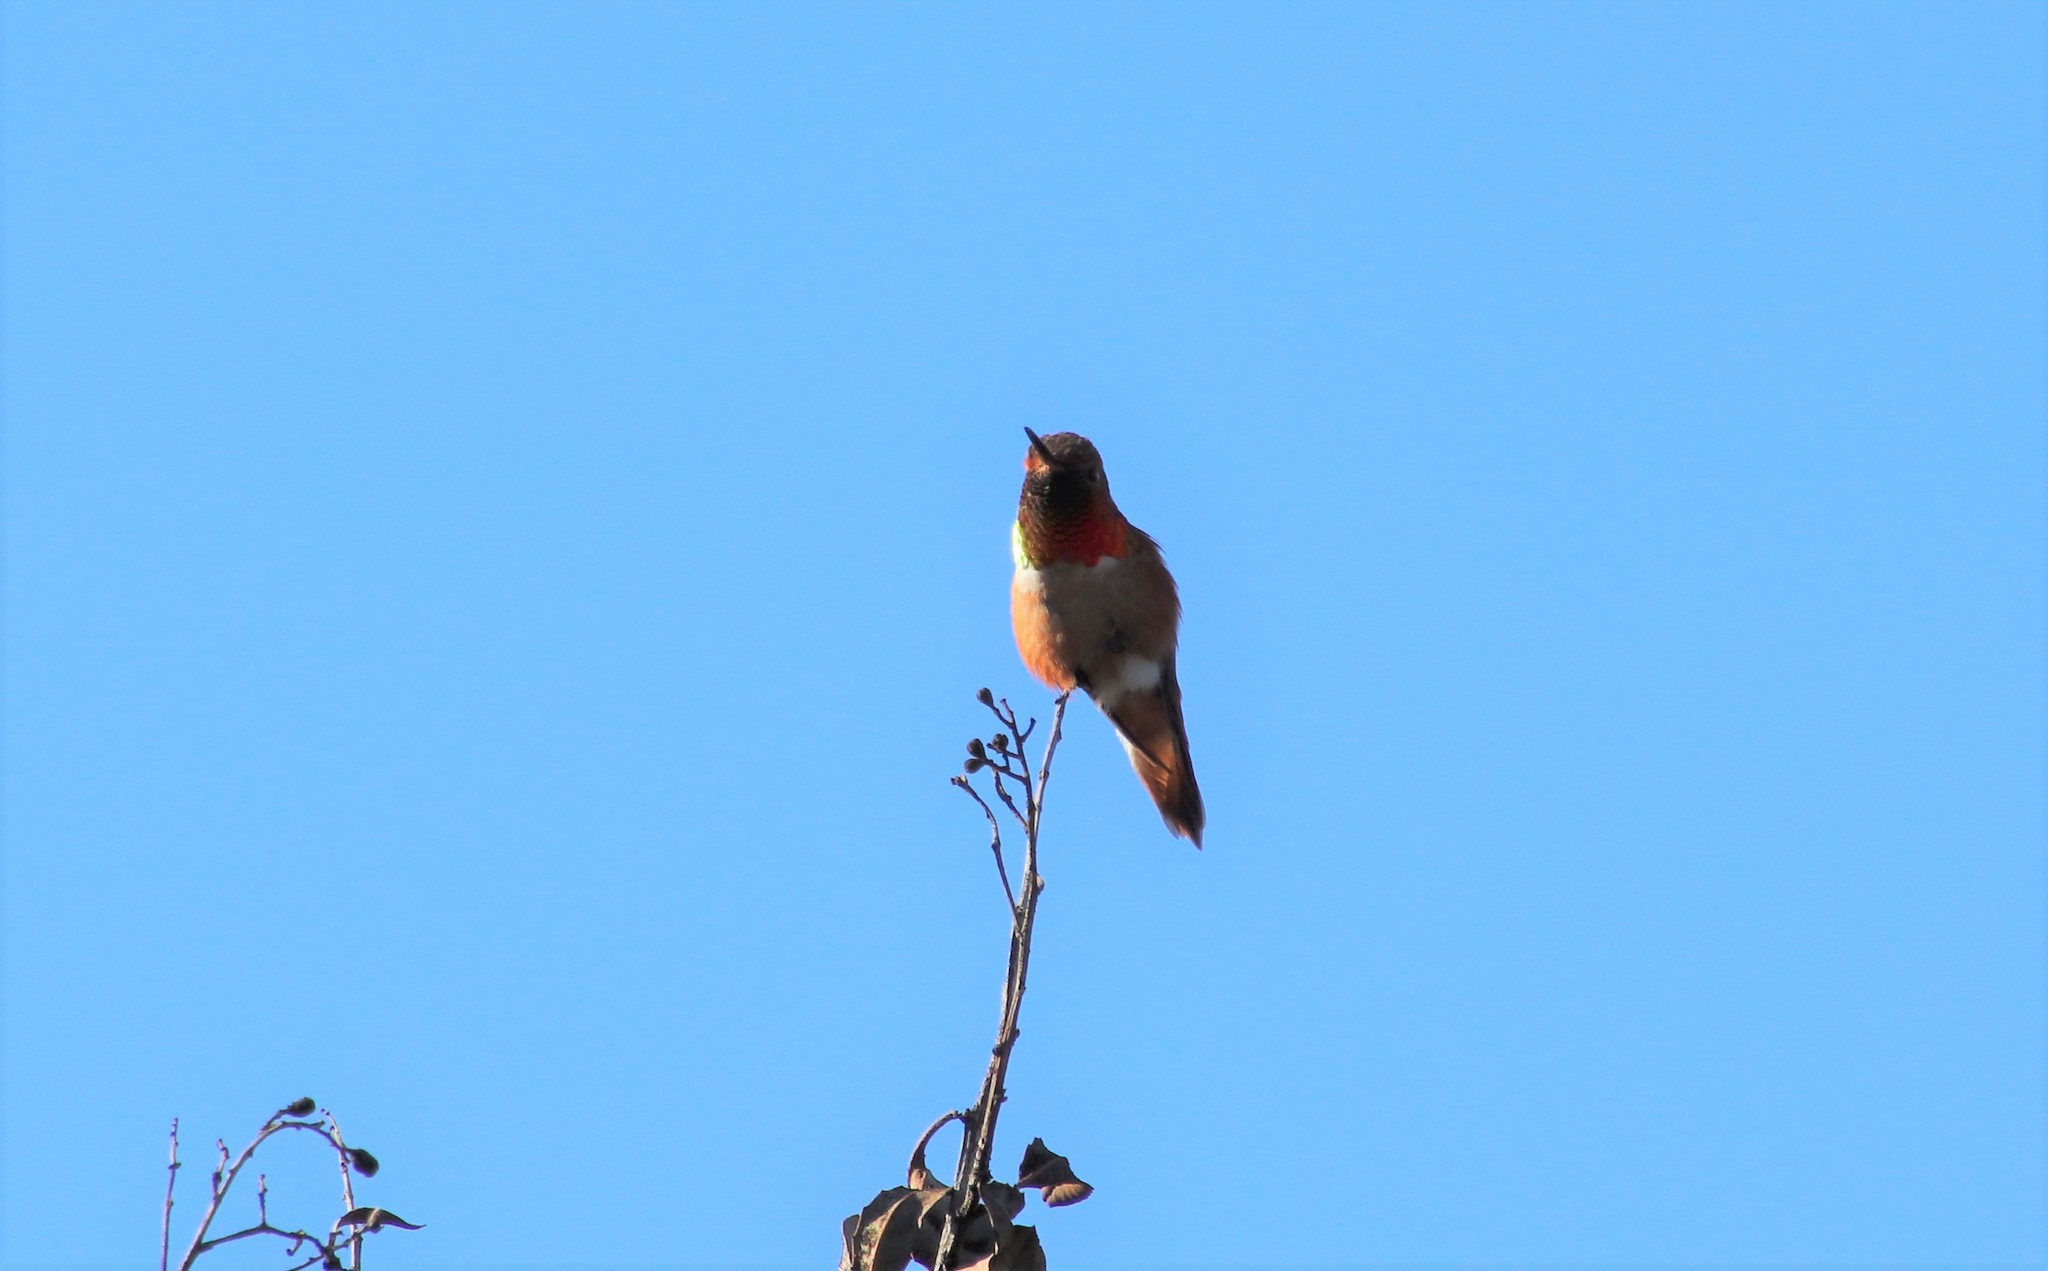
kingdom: Animalia
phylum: Chordata
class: Aves
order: Apodiformes
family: Trochilidae
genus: Selasphorus
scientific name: Selasphorus sasin
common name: Allen's hummingbird
